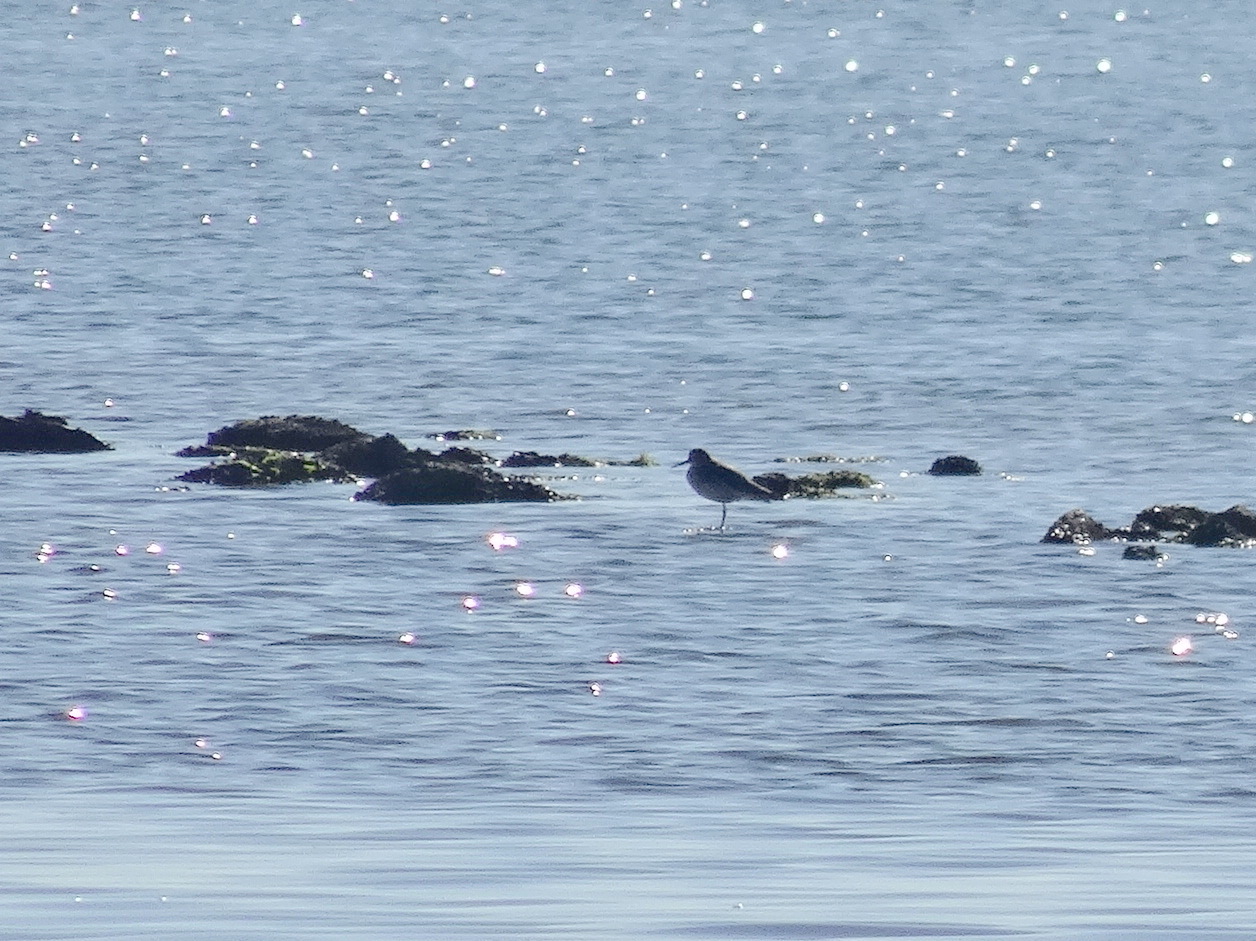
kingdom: Animalia
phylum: Chordata
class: Aves
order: Charadriiformes
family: Scolopacidae
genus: Tringa
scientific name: Tringa
